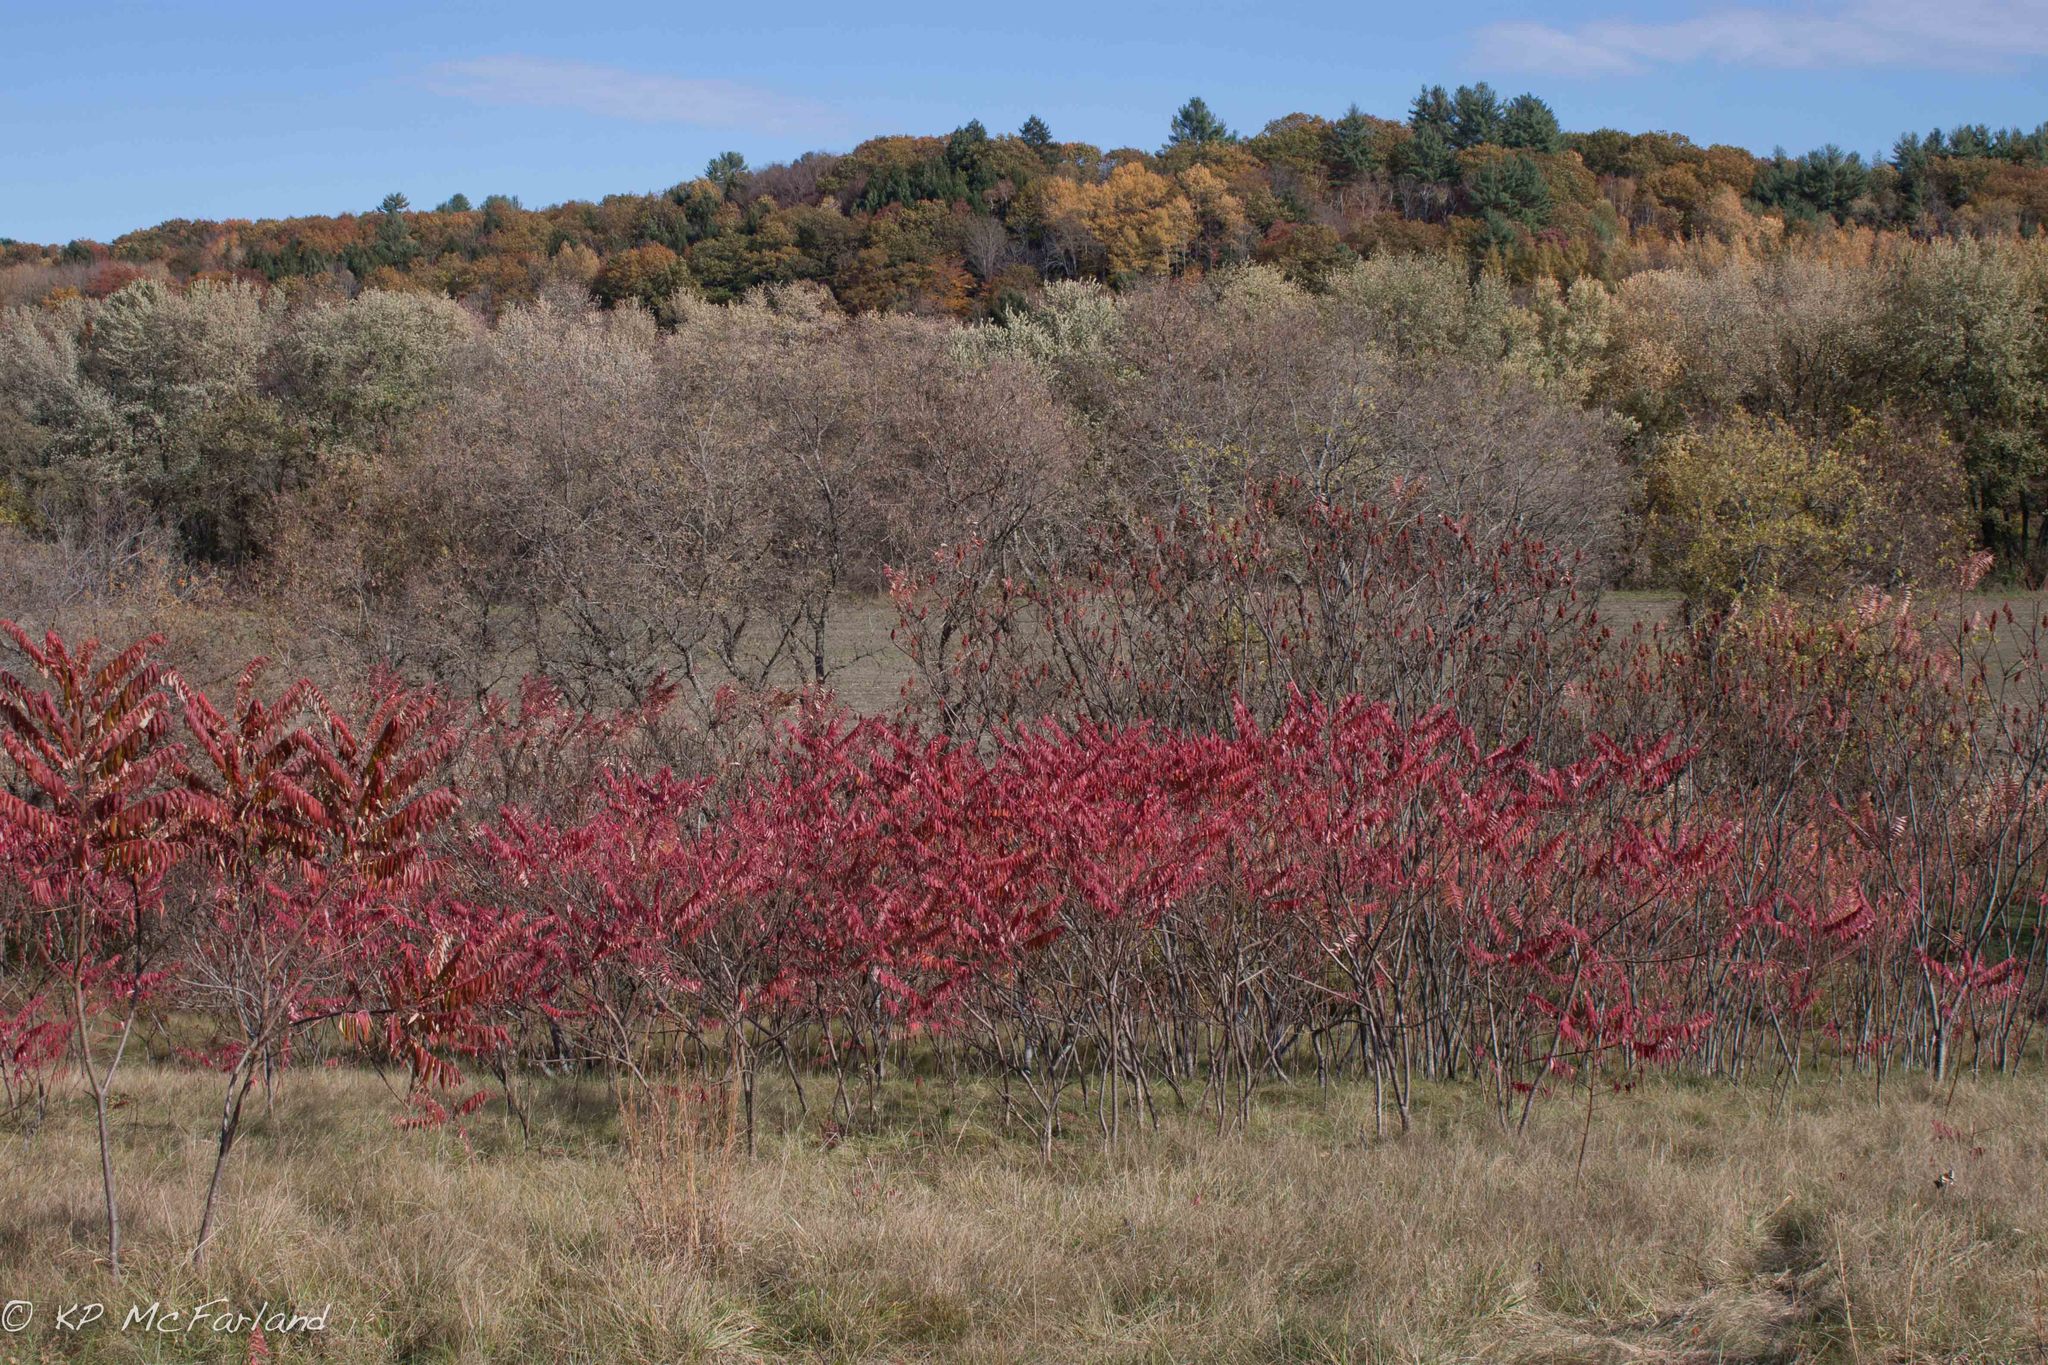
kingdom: Plantae
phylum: Tracheophyta
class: Magnoliopsida
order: Sapindales
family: Anacardiaceae
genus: Rhus
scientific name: Rhus typhina
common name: Staghorn sumac
